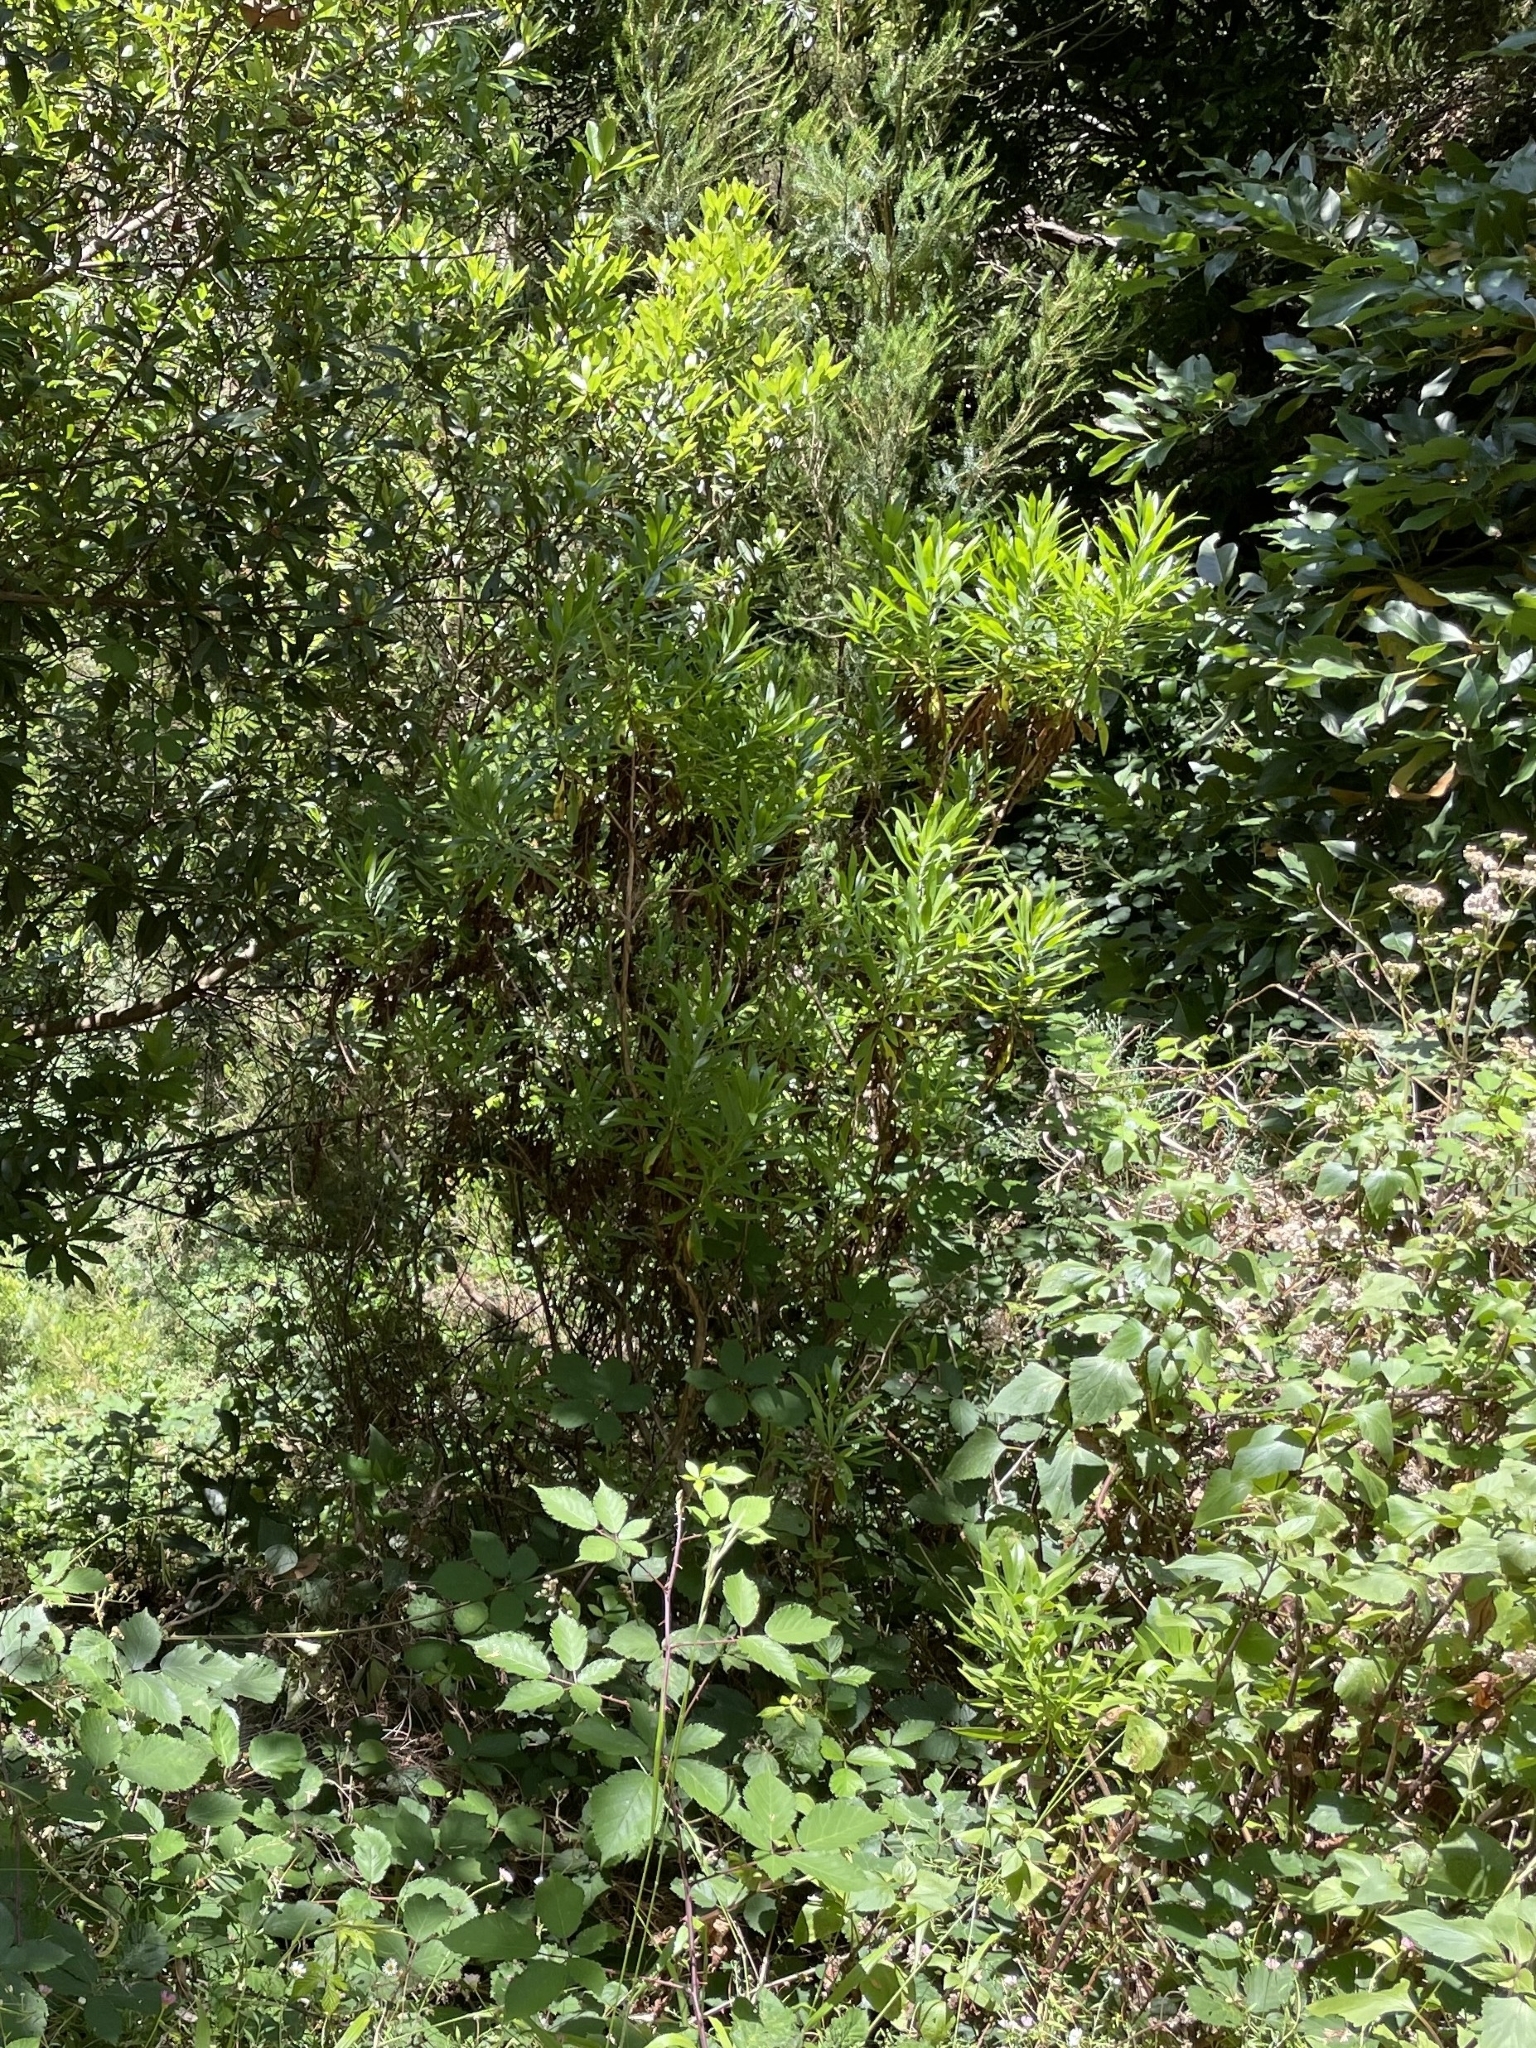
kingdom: Plantae
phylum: Tracheophyta
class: Magnoliopsida
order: Lamiales
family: Plantaginaceae
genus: Globularia
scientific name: Globularia salicina
